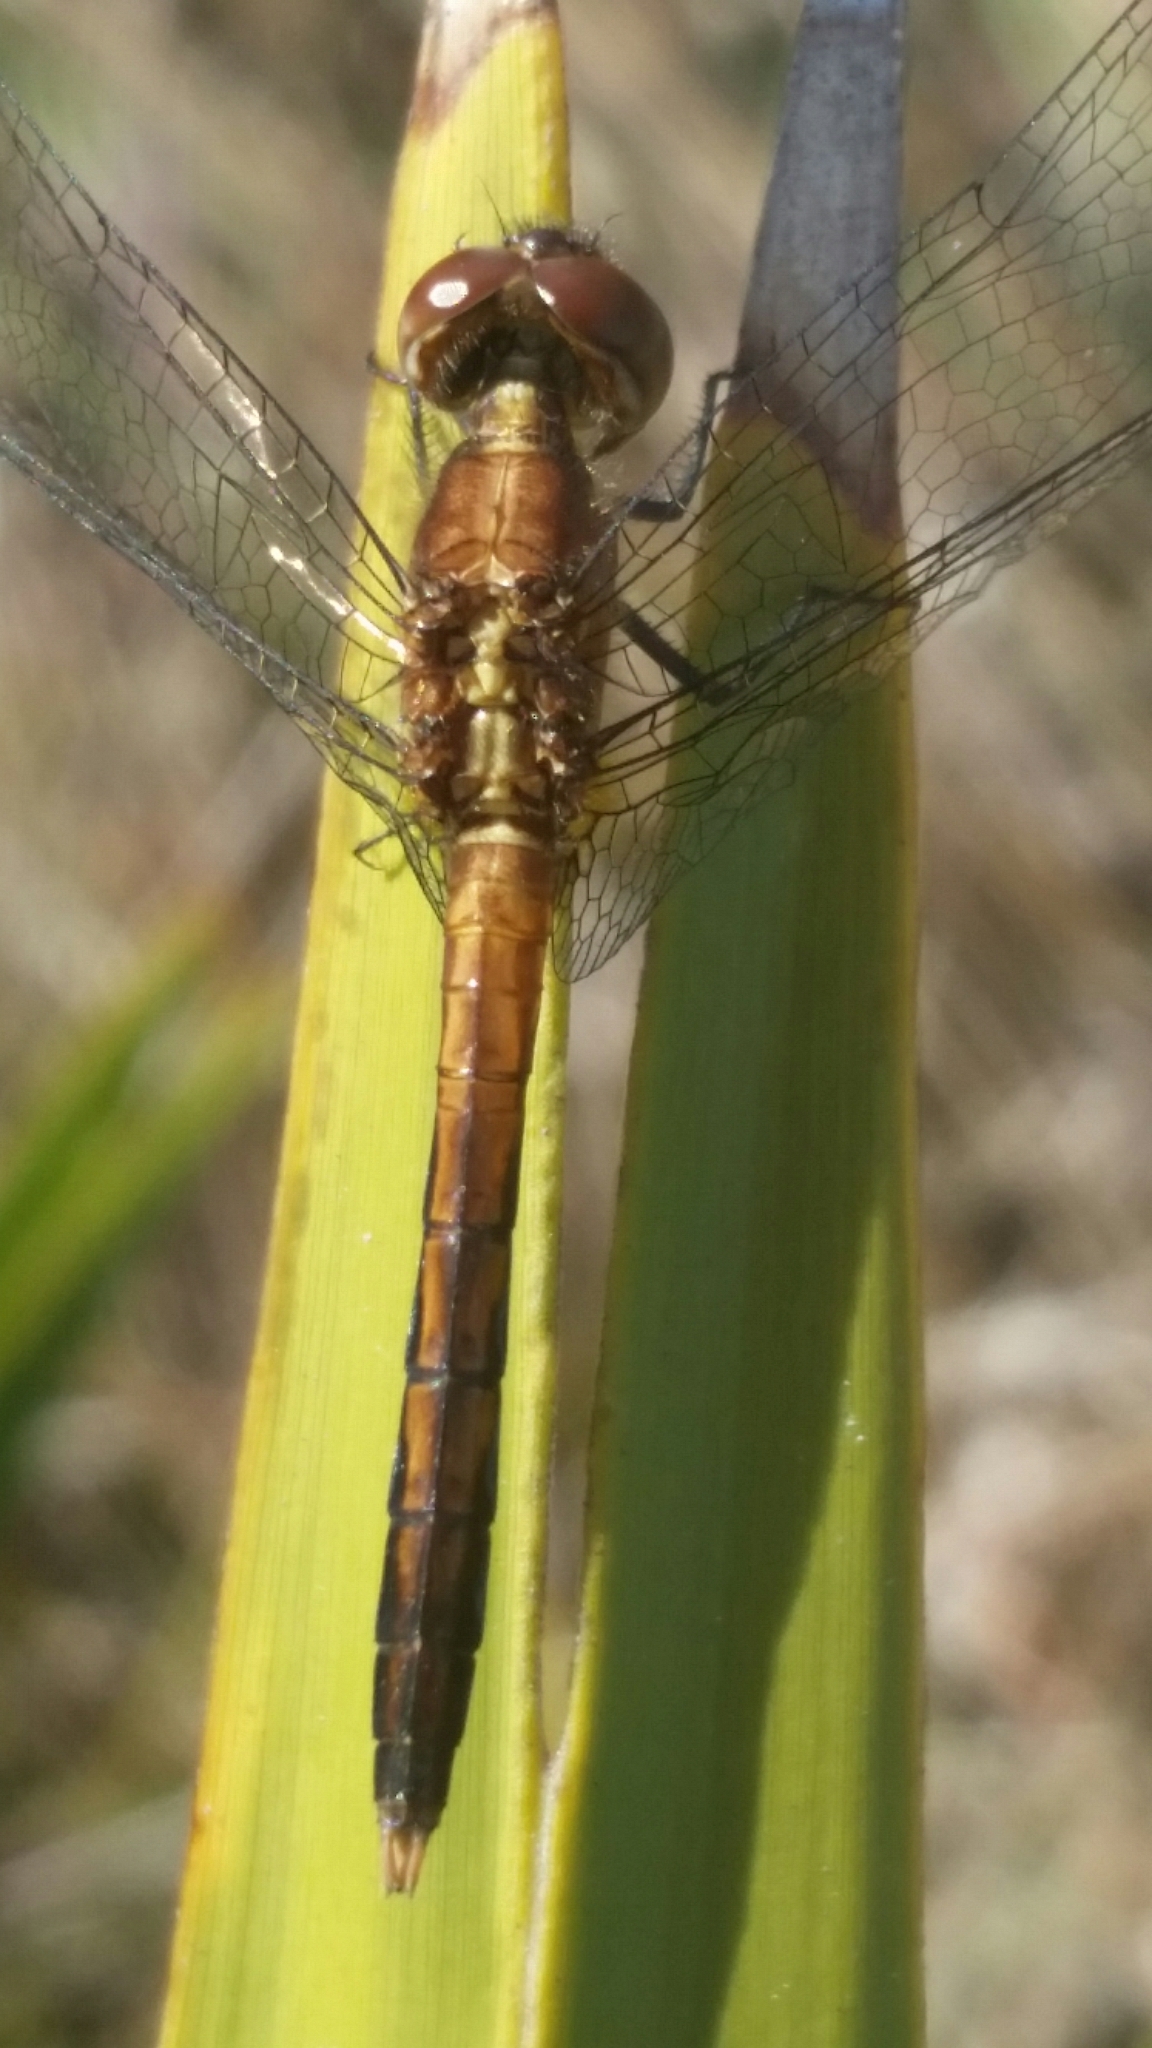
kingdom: Animalia
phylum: Arthropoda
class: Insecta
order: Odonata
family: Libellulidae
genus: Erythrodiplax
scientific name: Erythrodiplax minuscula
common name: Little blue dragonlet
